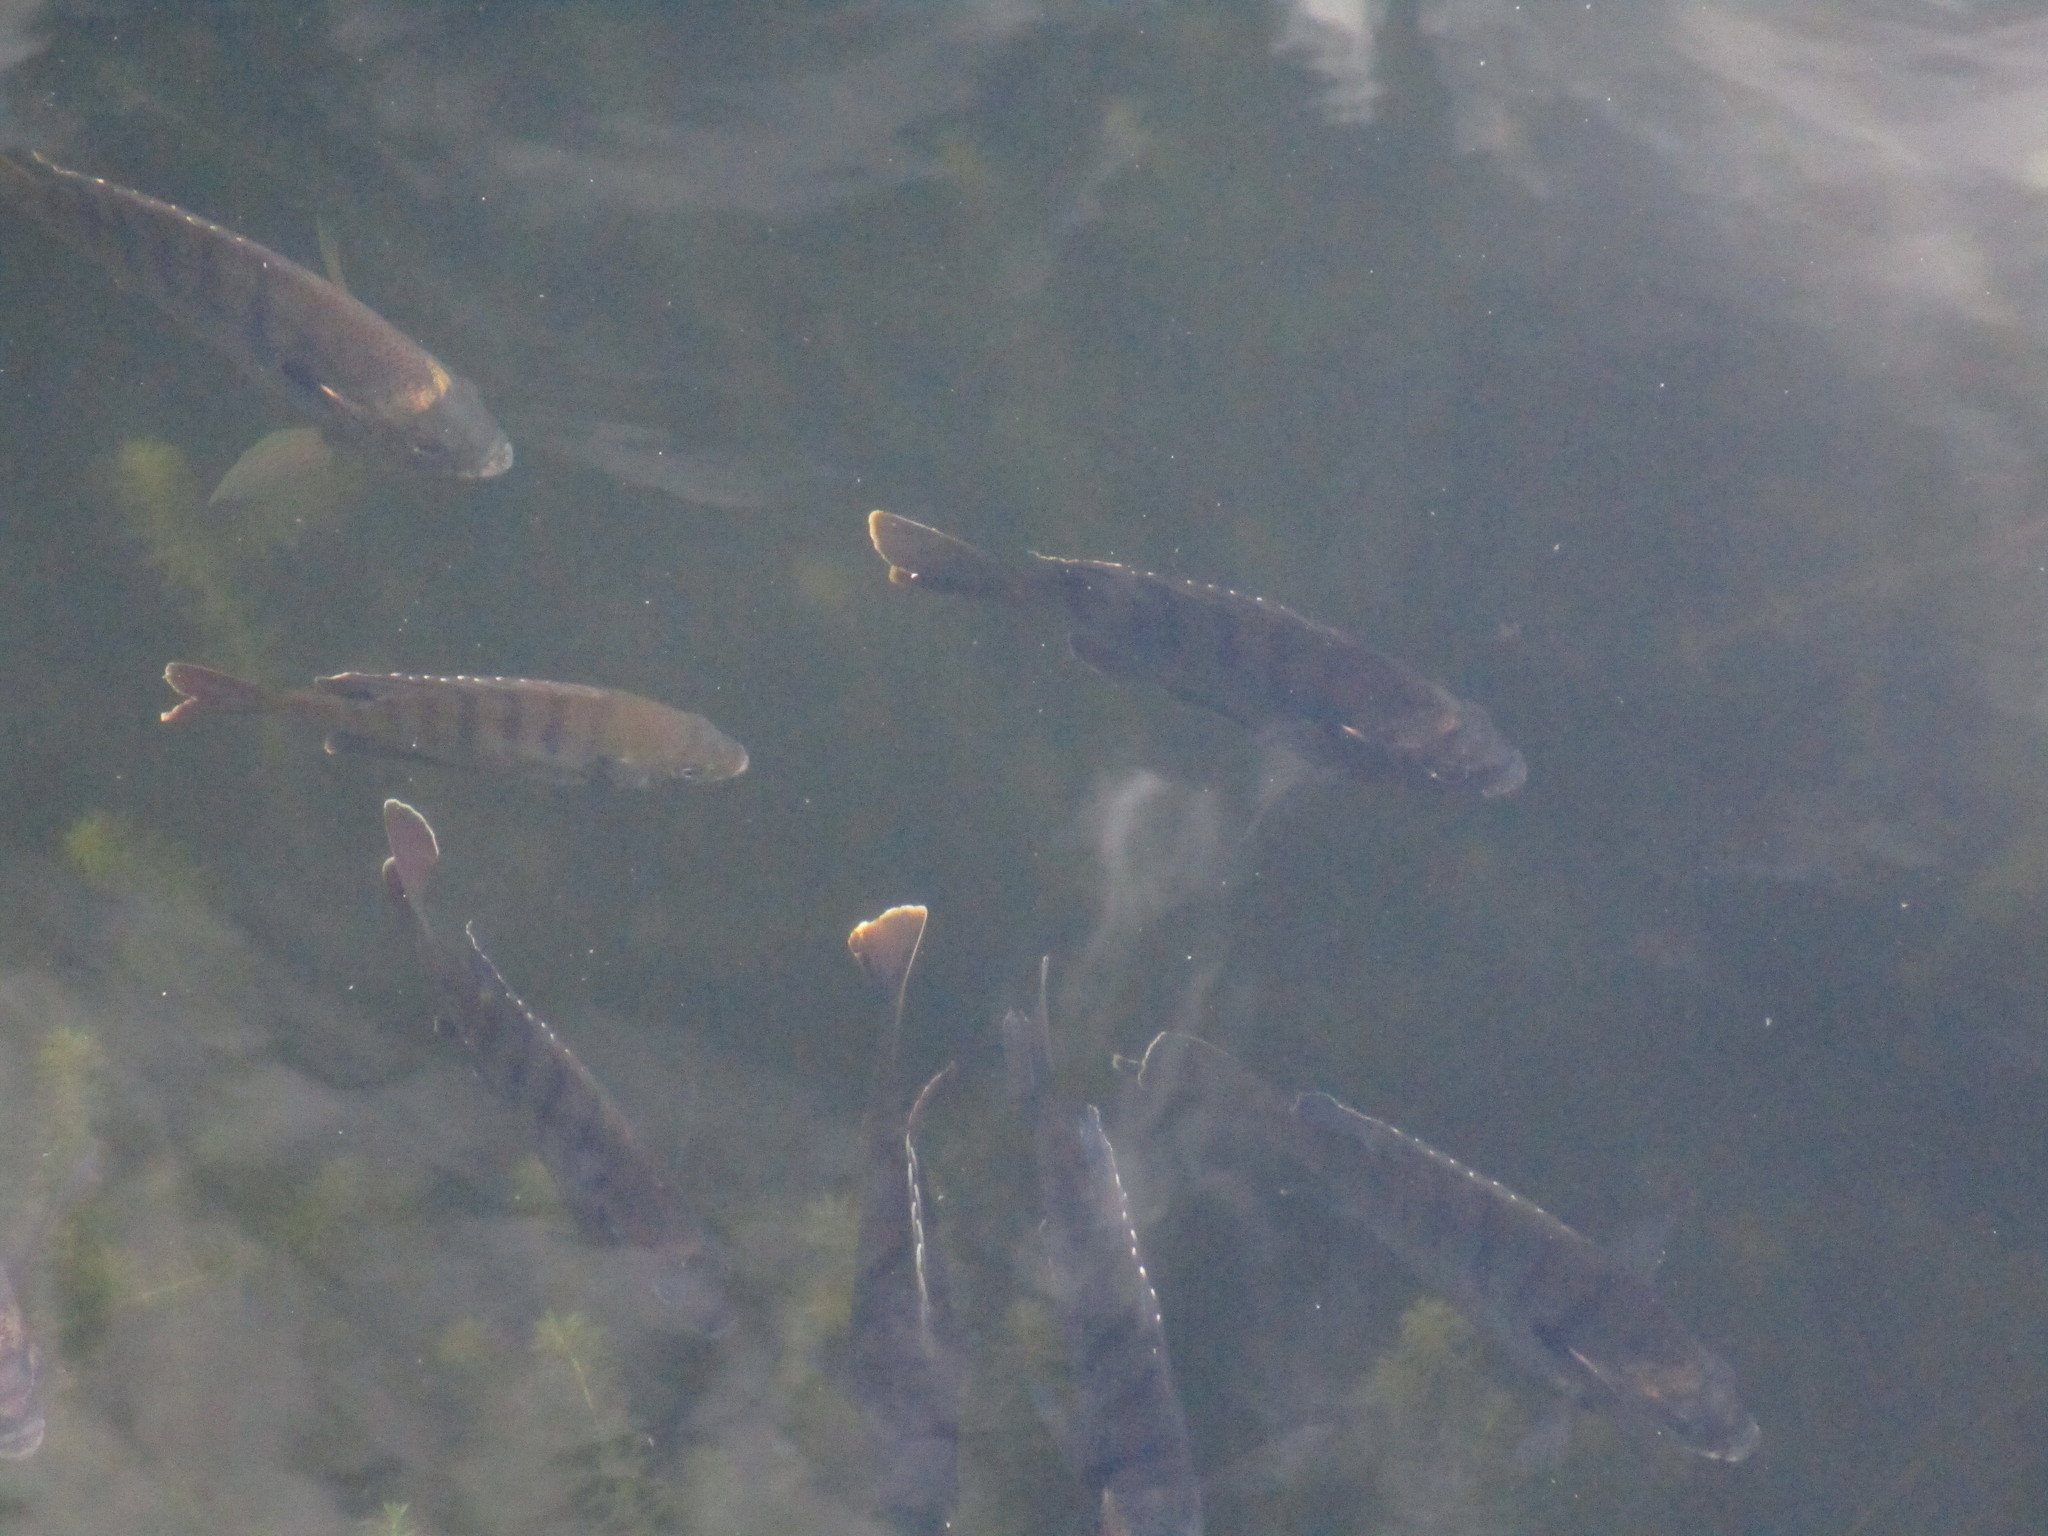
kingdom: Animalia
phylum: Chordata
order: Perciformes
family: Centrarchidae
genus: Lepomis
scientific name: Lepomis macrochirus
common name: Bluegill
